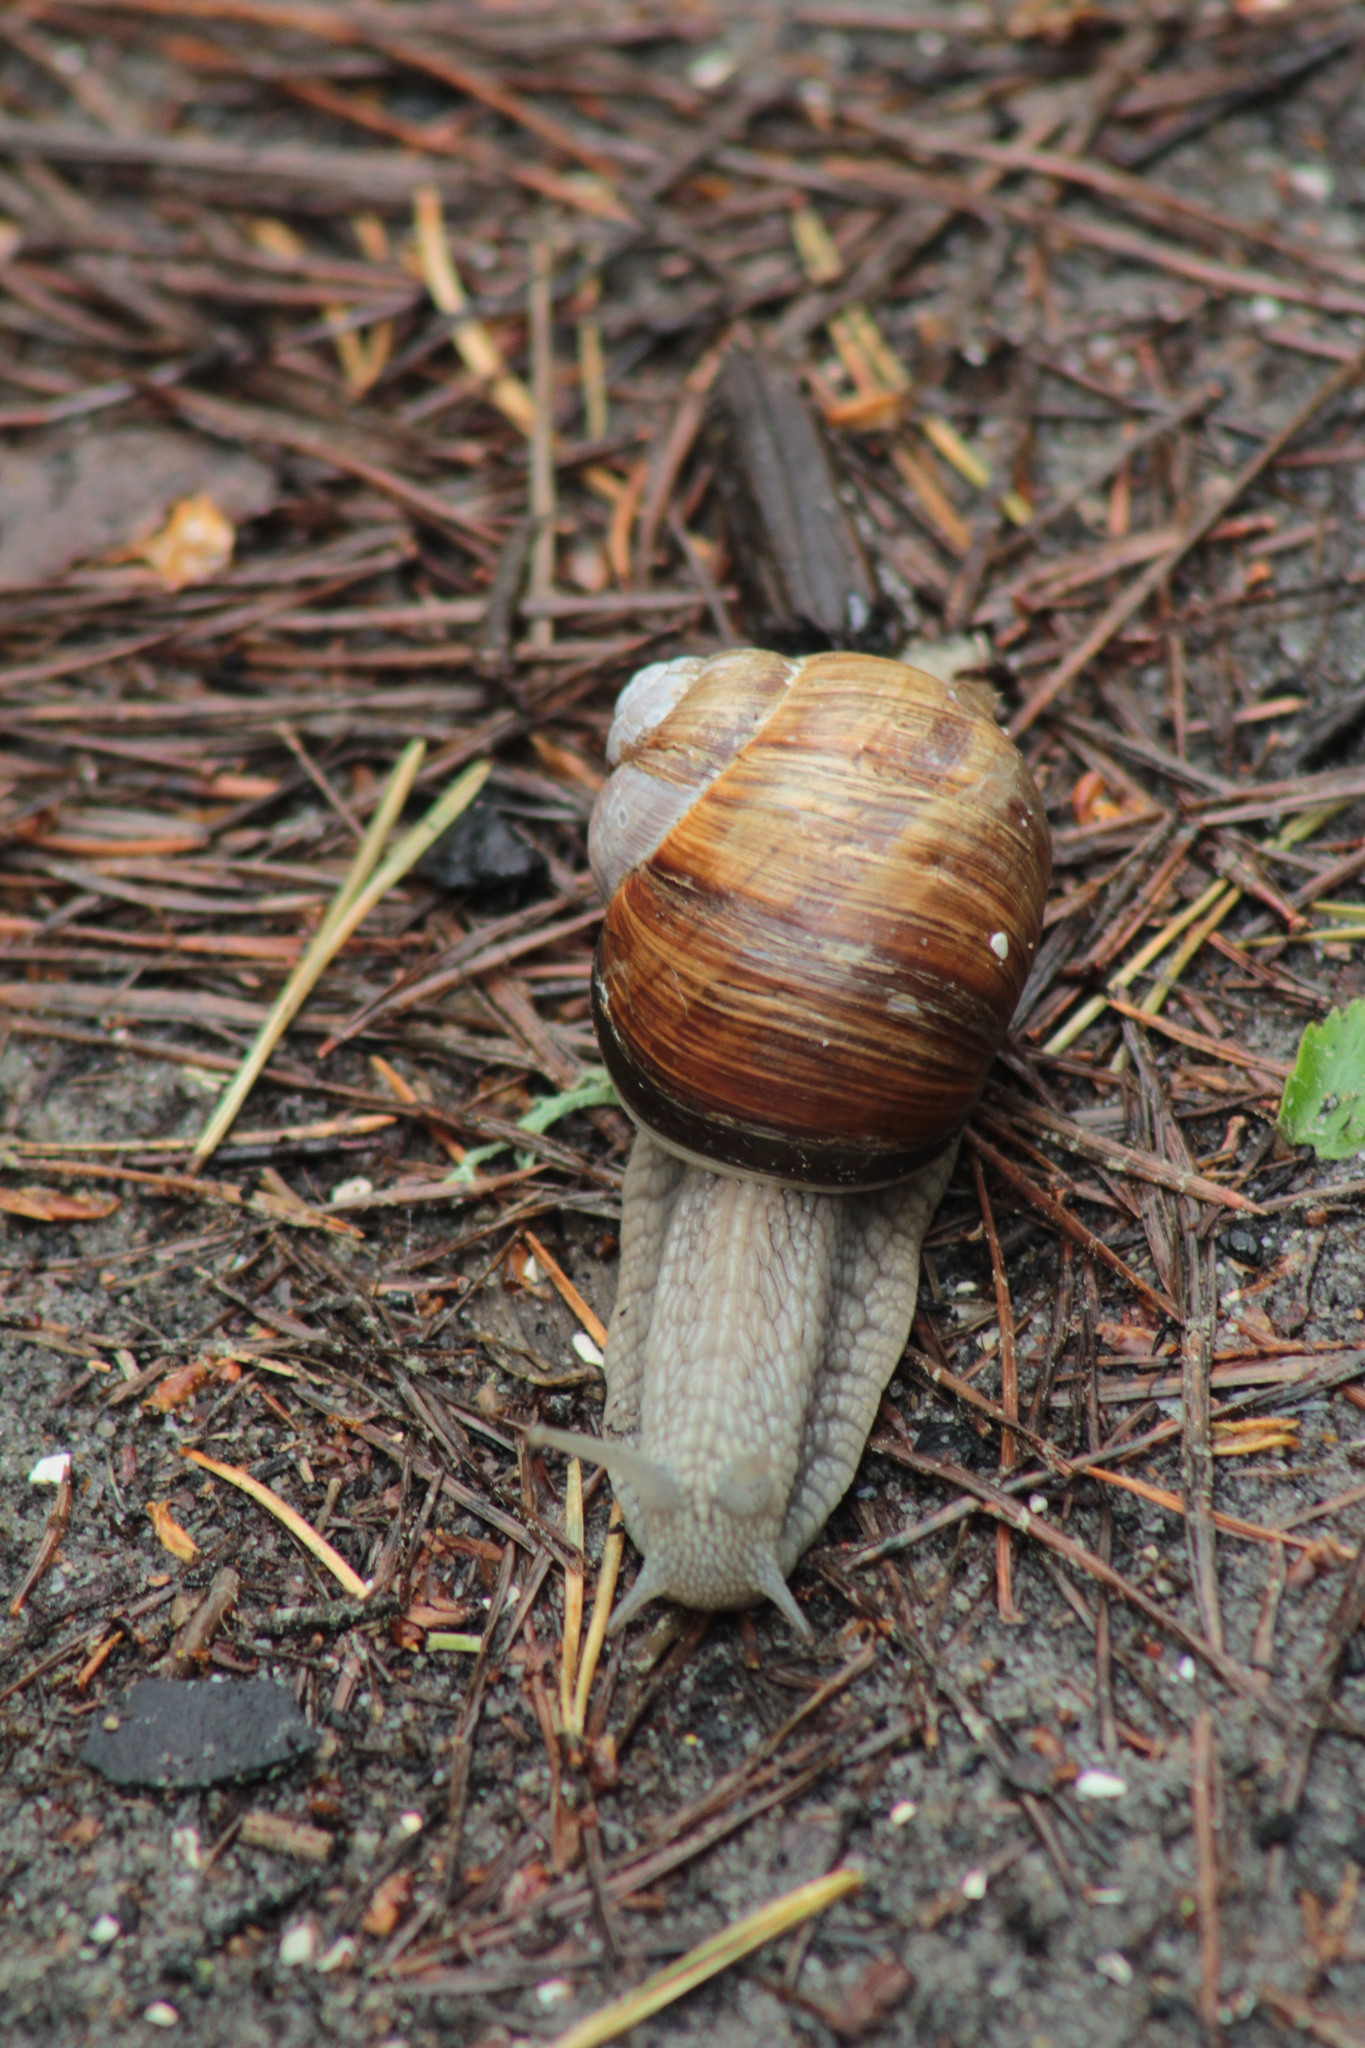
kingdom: Animalia
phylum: Mollusca
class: Gastropoda
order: Stylommatophora
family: Helicidae
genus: Helix
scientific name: Helix pomatia
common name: Roman snail
